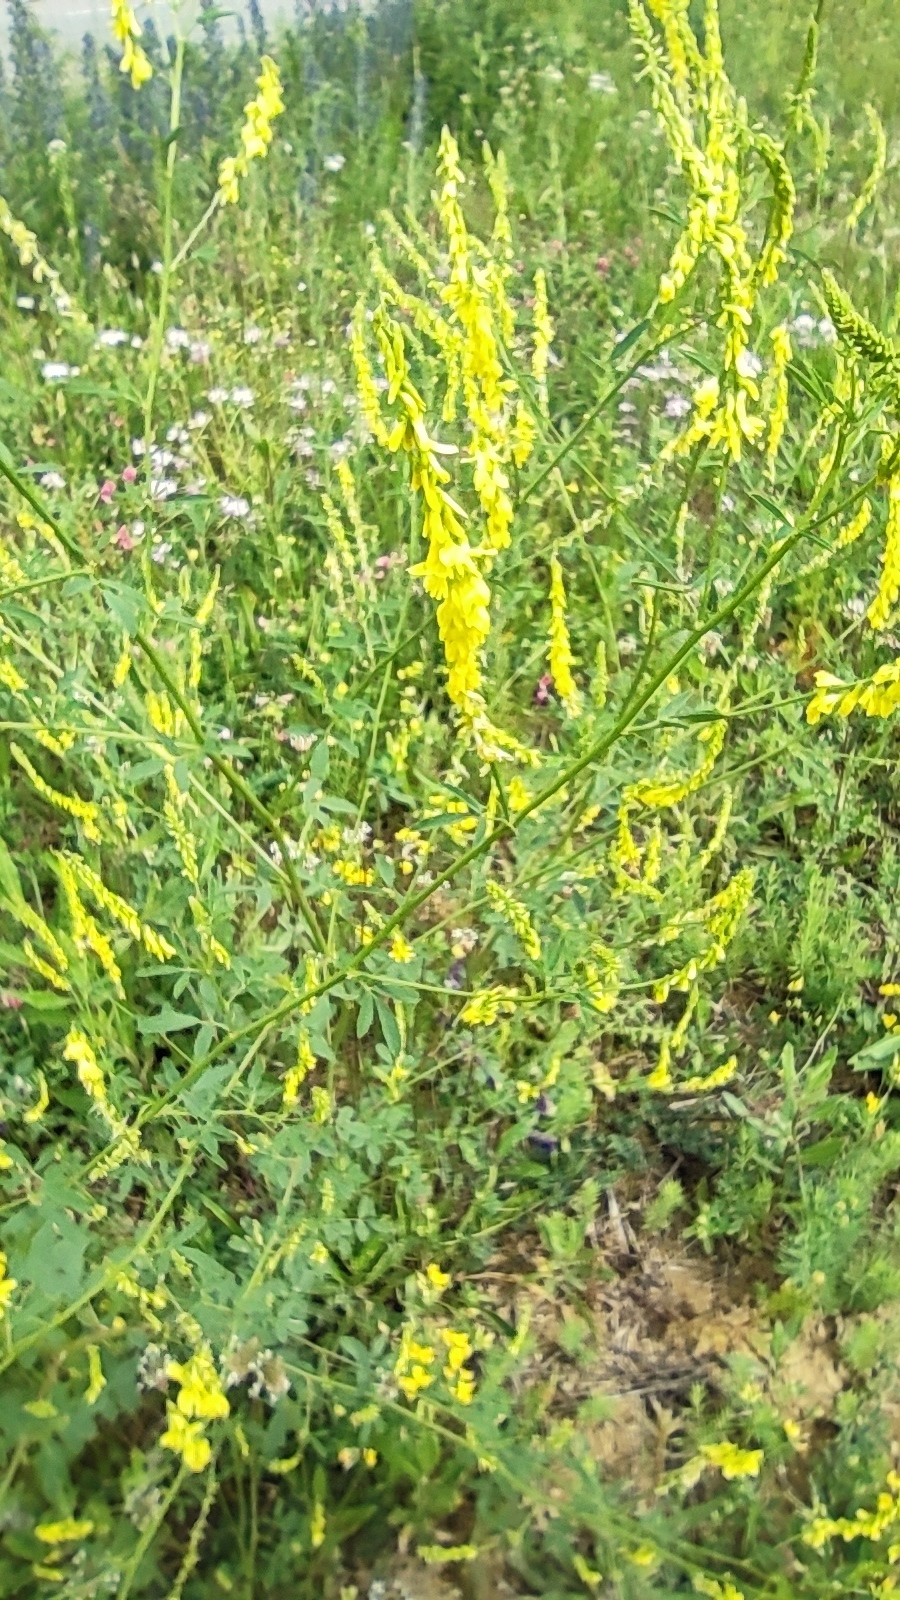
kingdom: Plantae
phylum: Tracheophyta
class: Magnoliopsida
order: Fabales
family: Fabaceae
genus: Melilotus
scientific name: Melilotus officinalis
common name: Sweetclover
